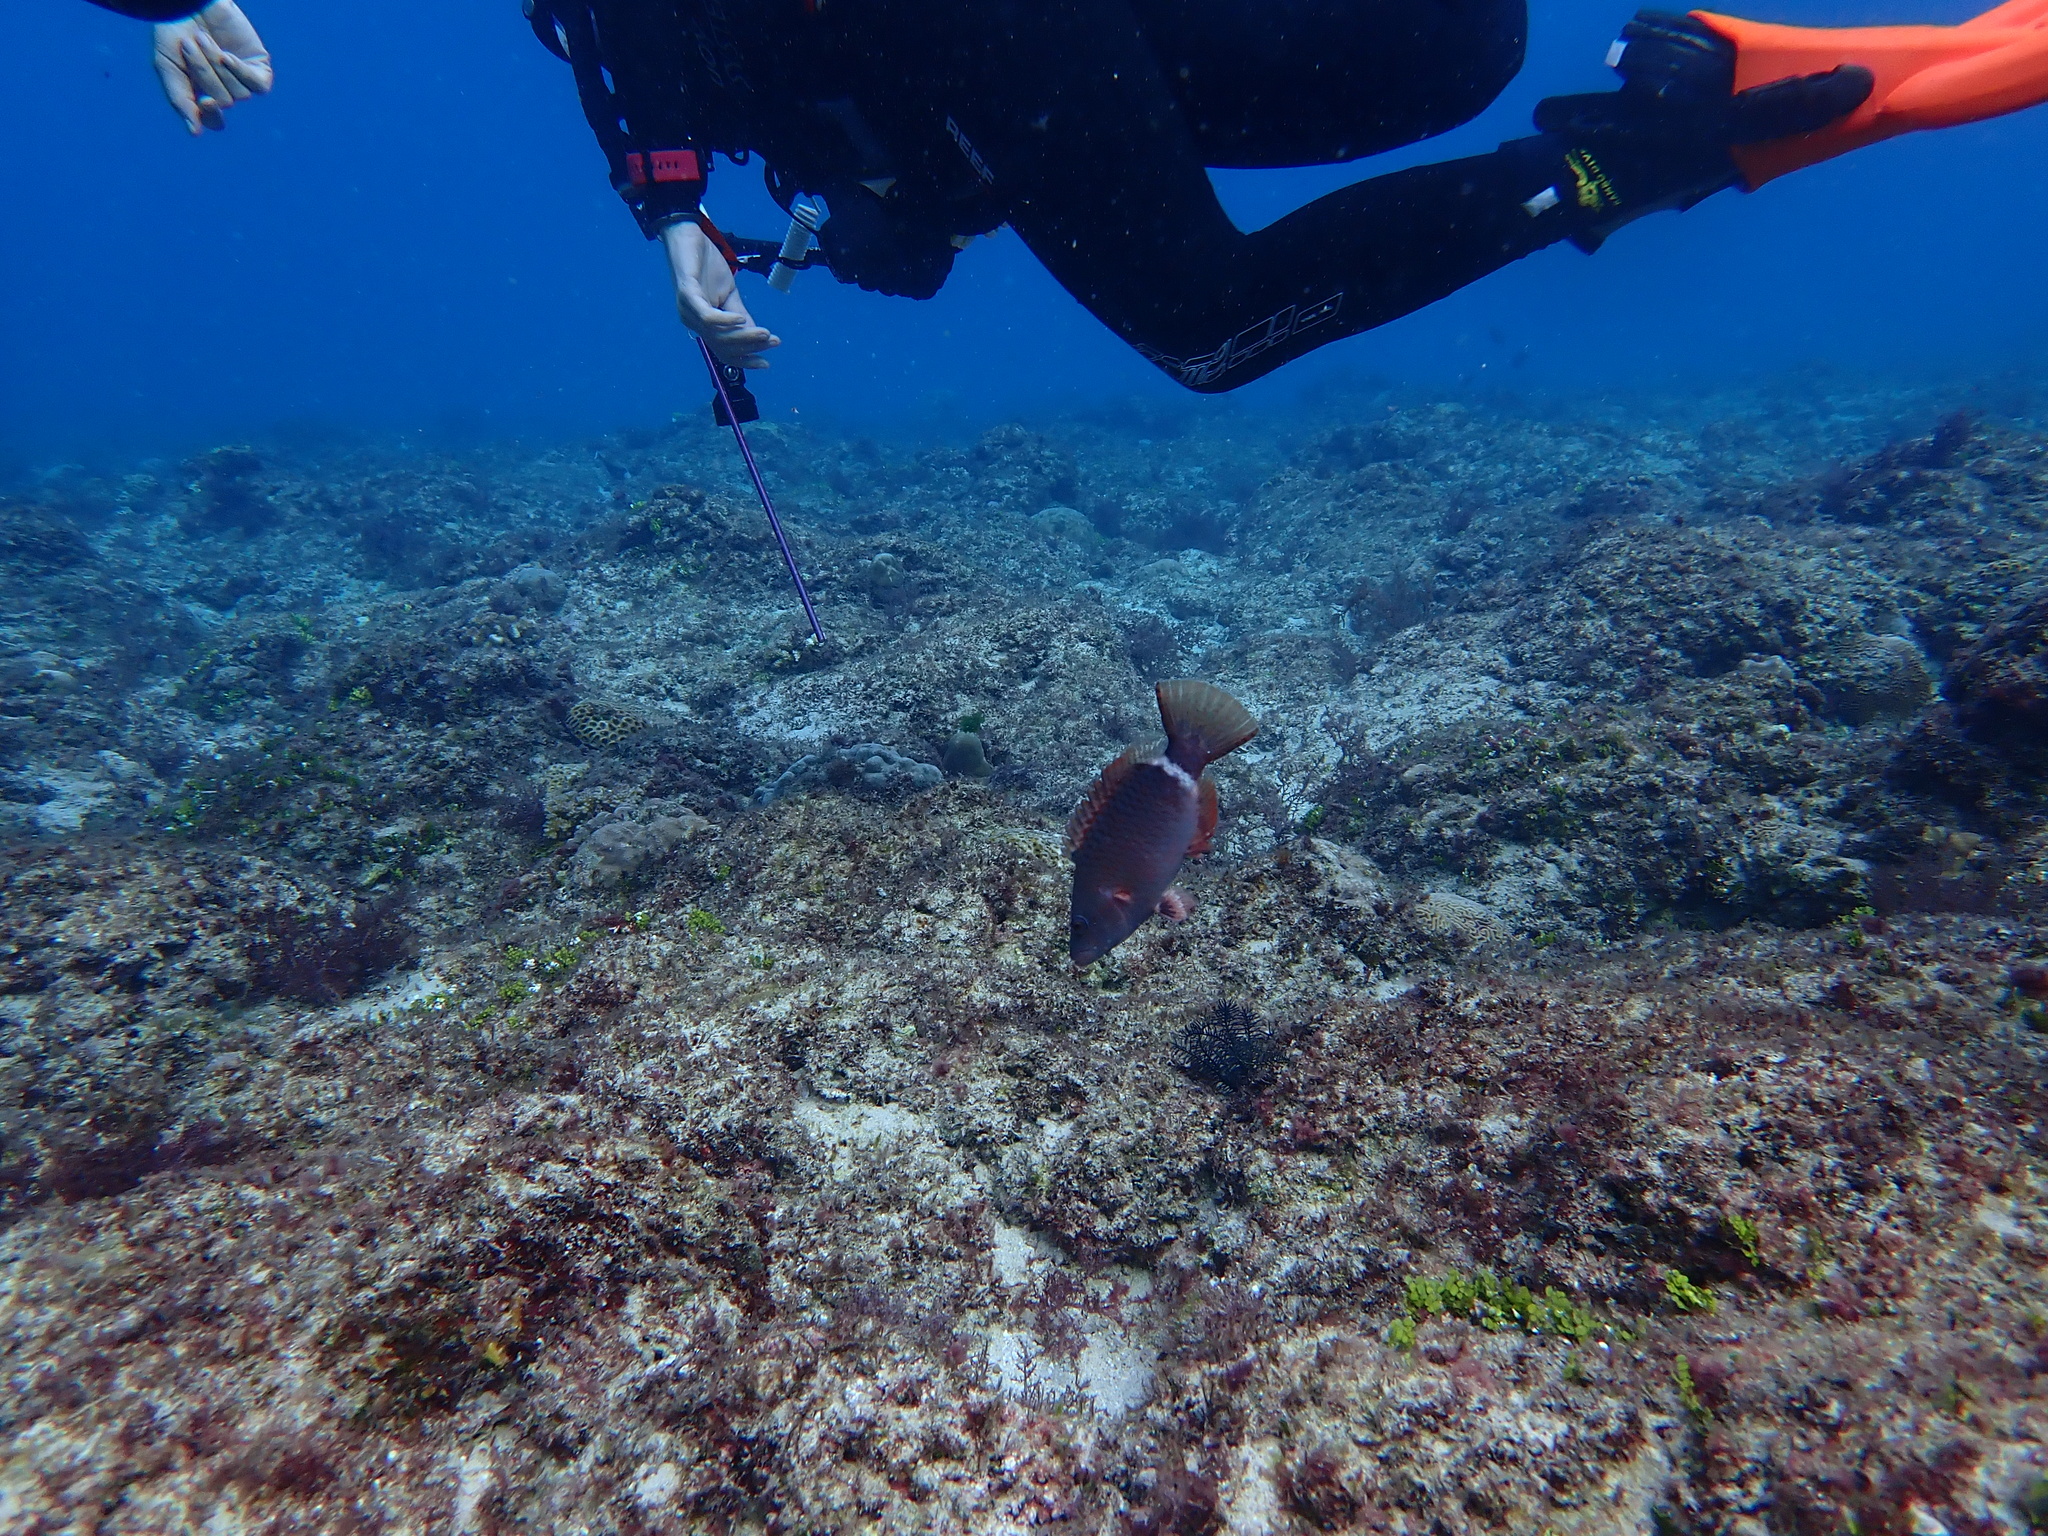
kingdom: Animalia
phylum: Chordata
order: Perciformes
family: Labridae
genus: Oxycheilinus
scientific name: Oxycheilinus unifasciatus
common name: Ringtail maori wrasse
